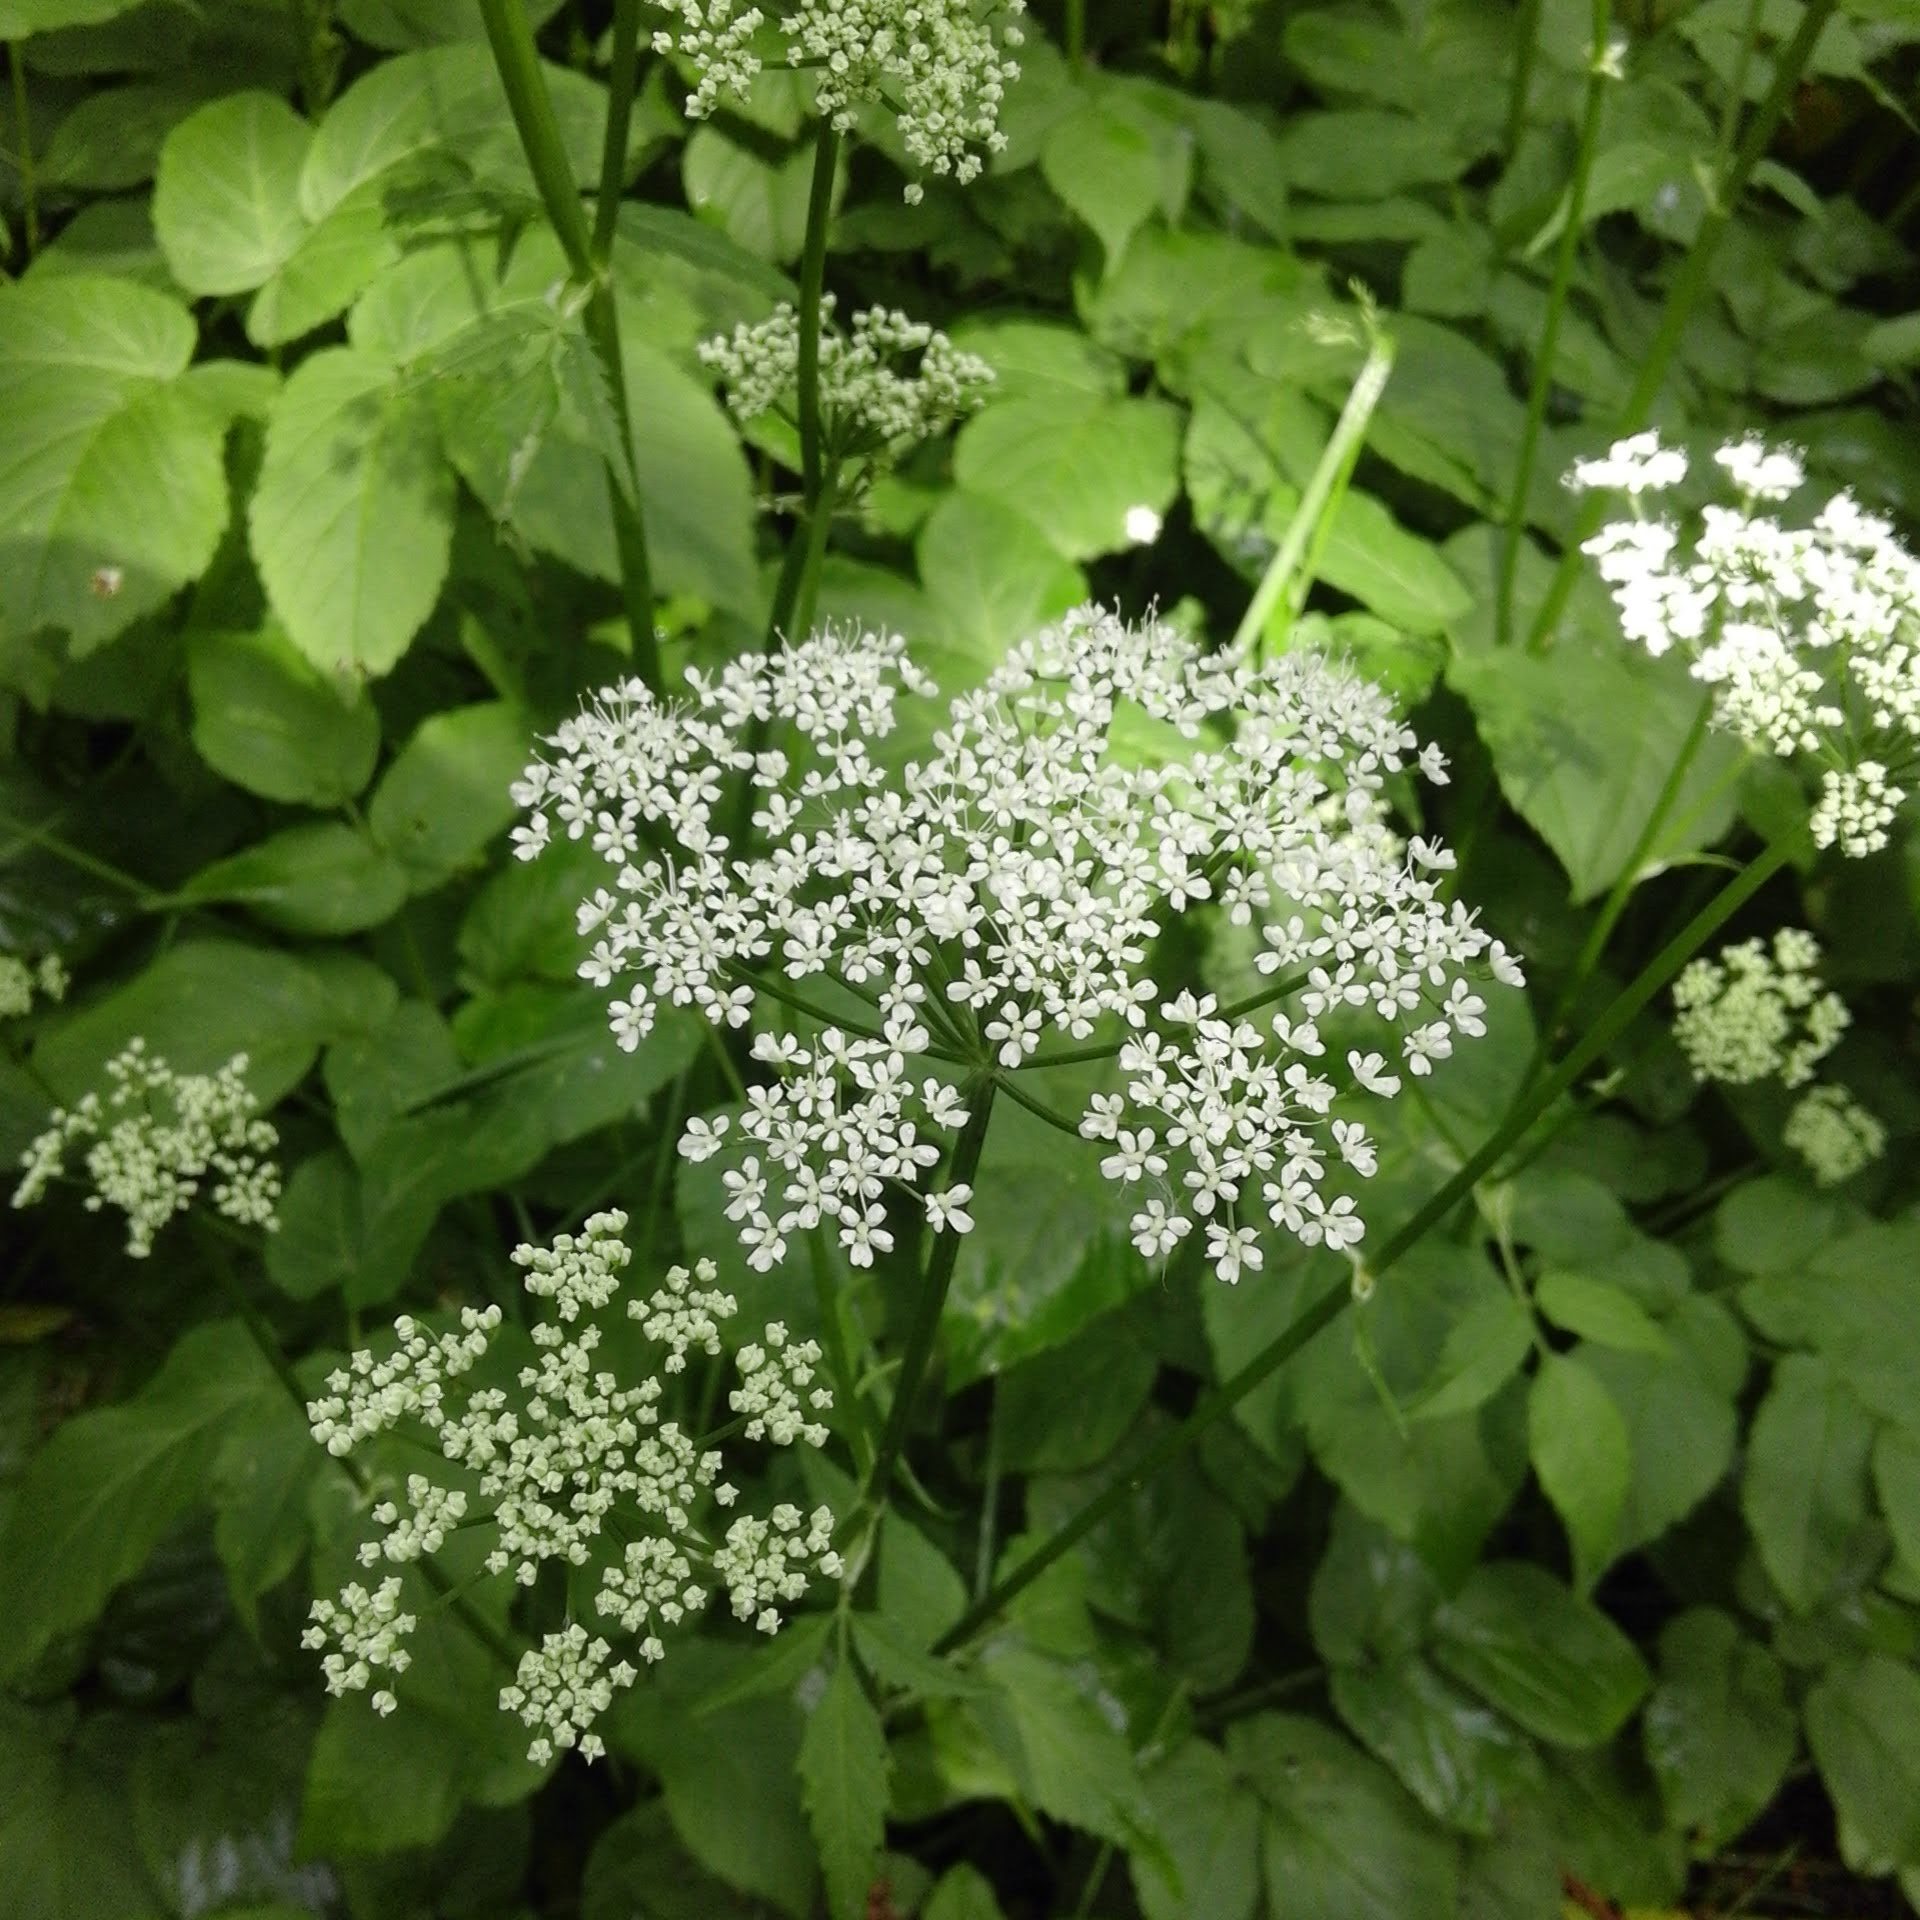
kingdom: Plantae
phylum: Tracheophyta
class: Magnoliopsida
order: Apiales
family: Apiaceae
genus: Aegopodium
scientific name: Aegopodium podagraria
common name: Ground-elder
